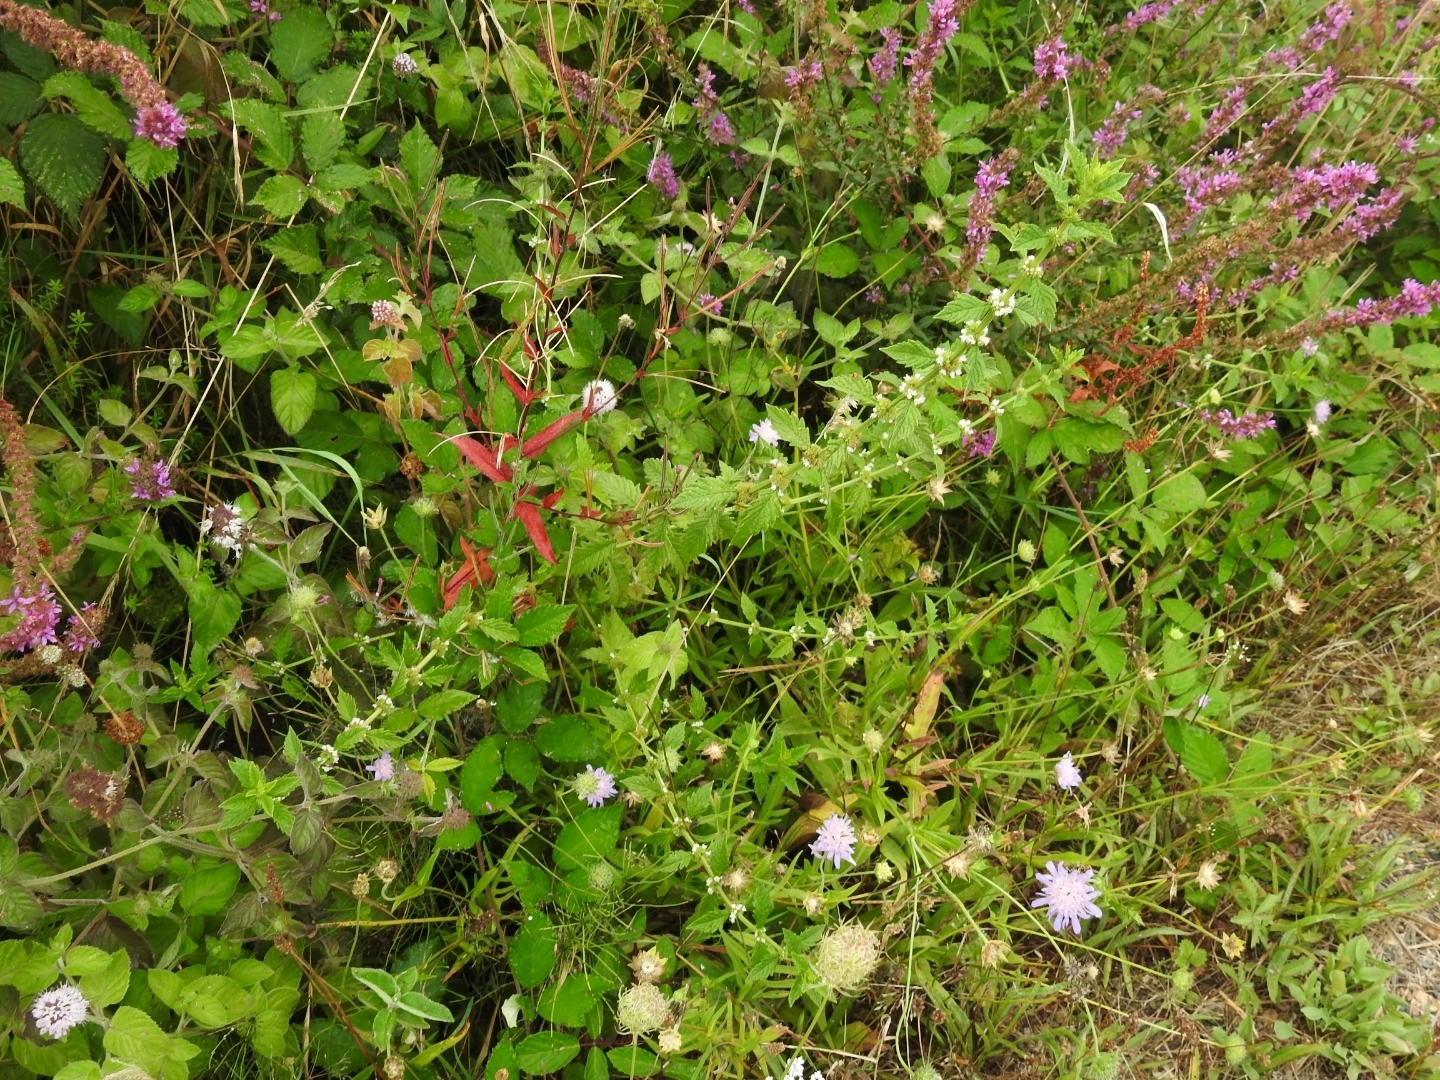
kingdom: Plantae
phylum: Tracheophyta
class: Magnoliopsida
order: Lamiales
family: Lamiaceae
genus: Lycopus
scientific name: Lycopus europaeus
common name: European bugleweed
